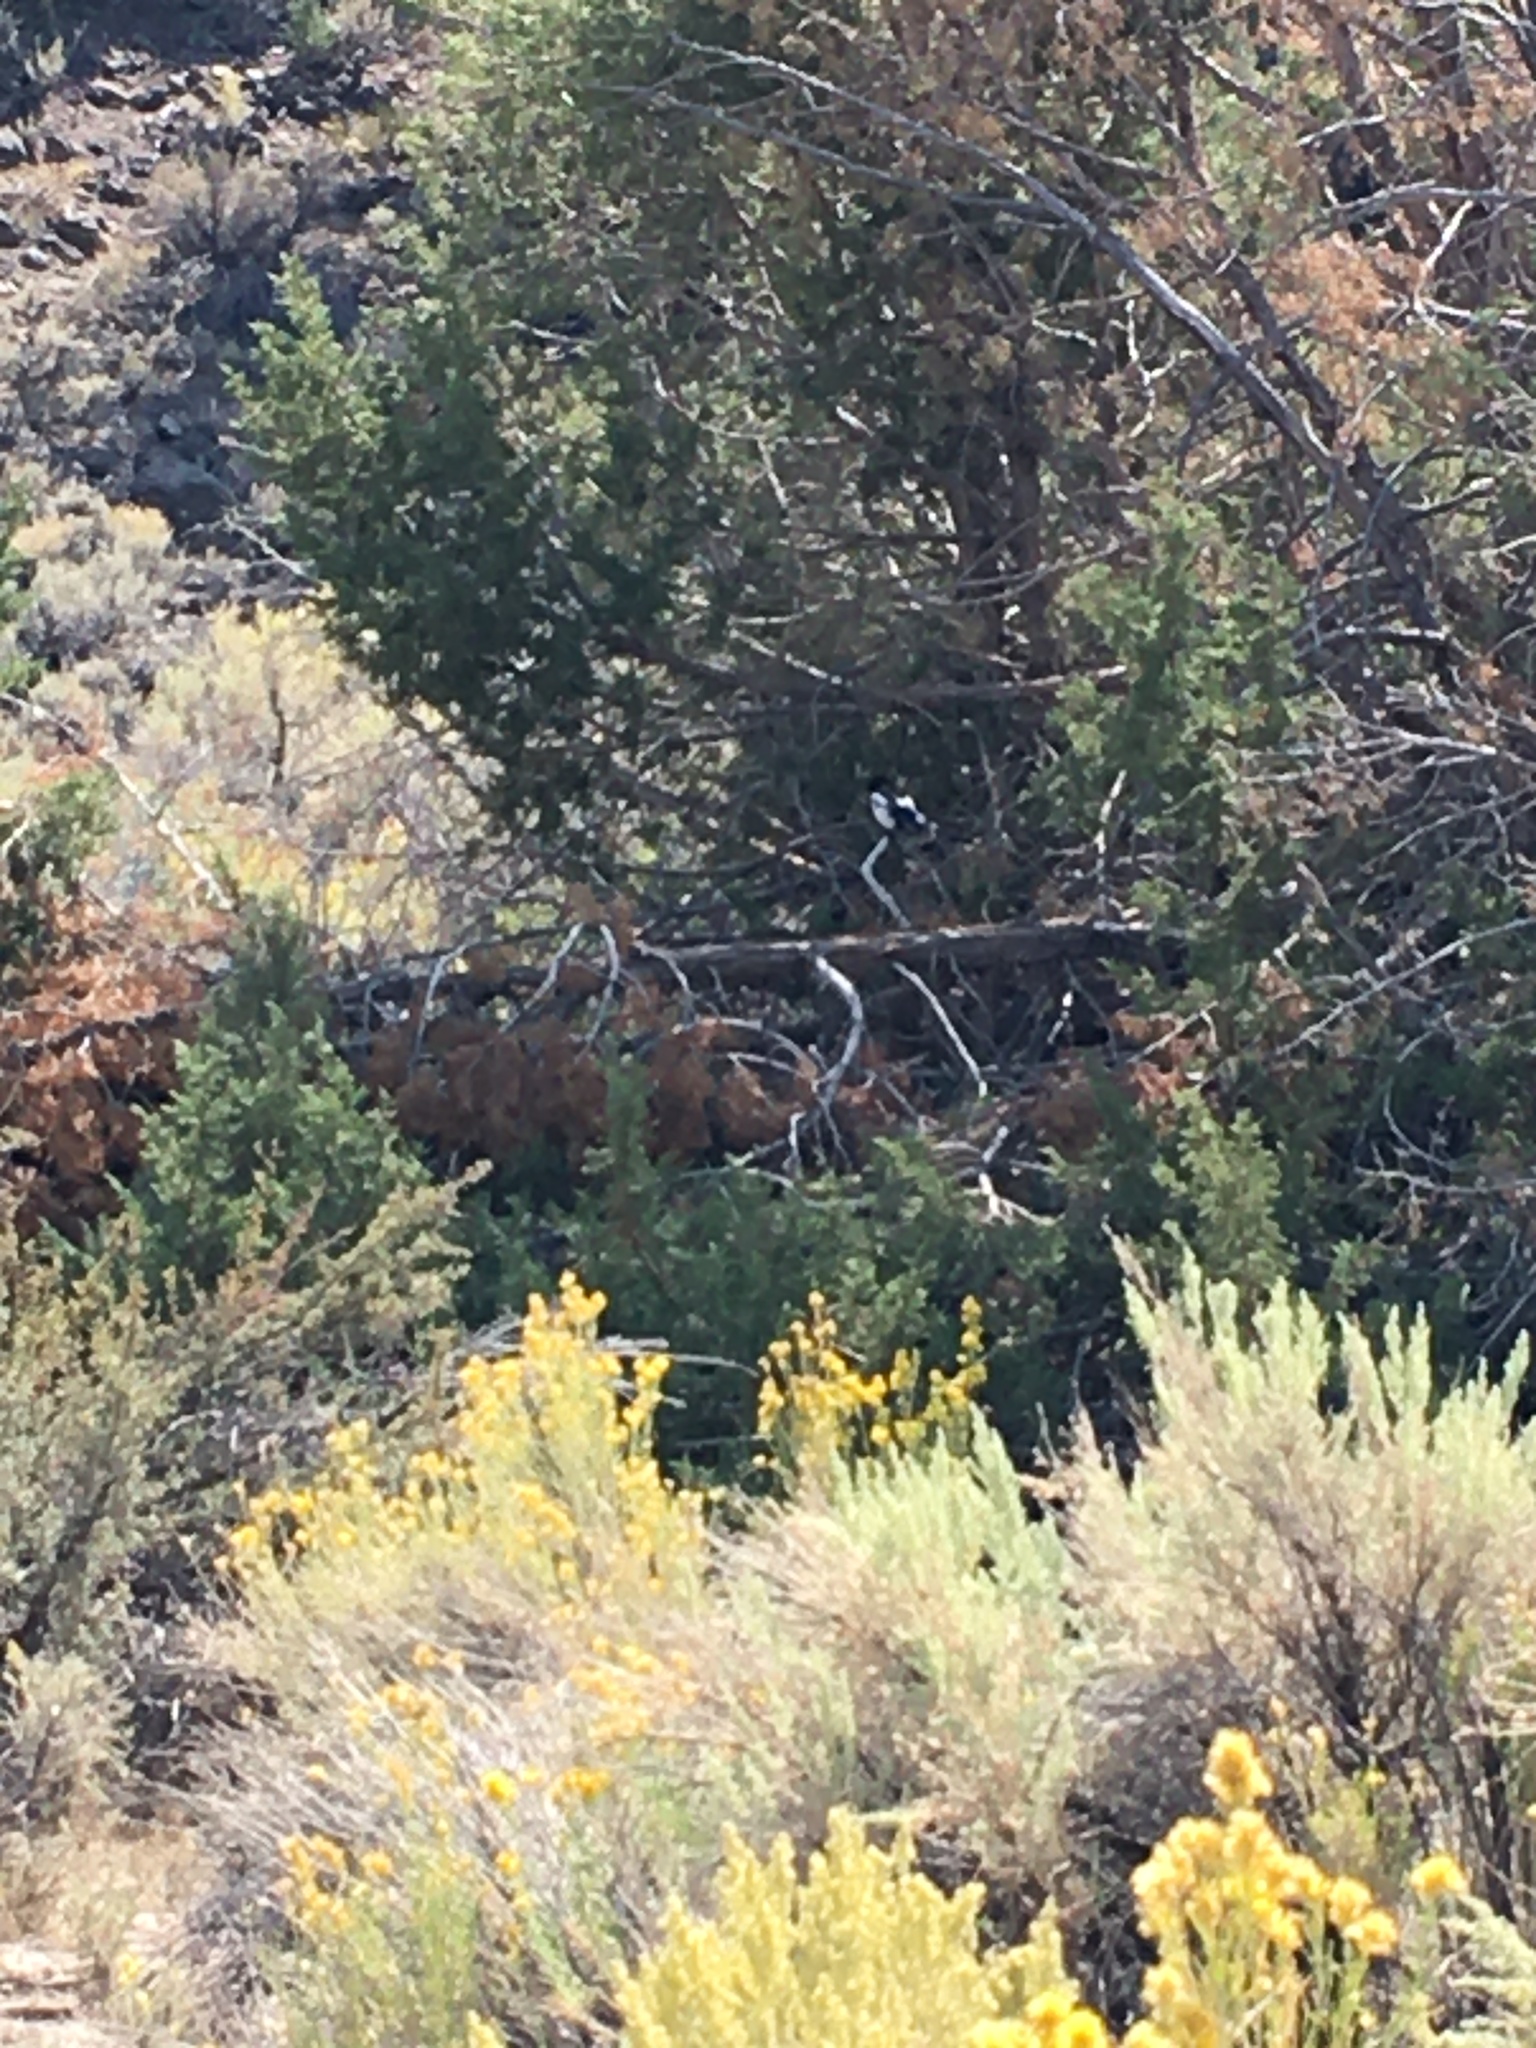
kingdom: Animalia
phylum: Chordata
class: Aves
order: Passeriformes
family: Corvidae
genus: Pica
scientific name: Pica hudsonia
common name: Black-billed magpie
